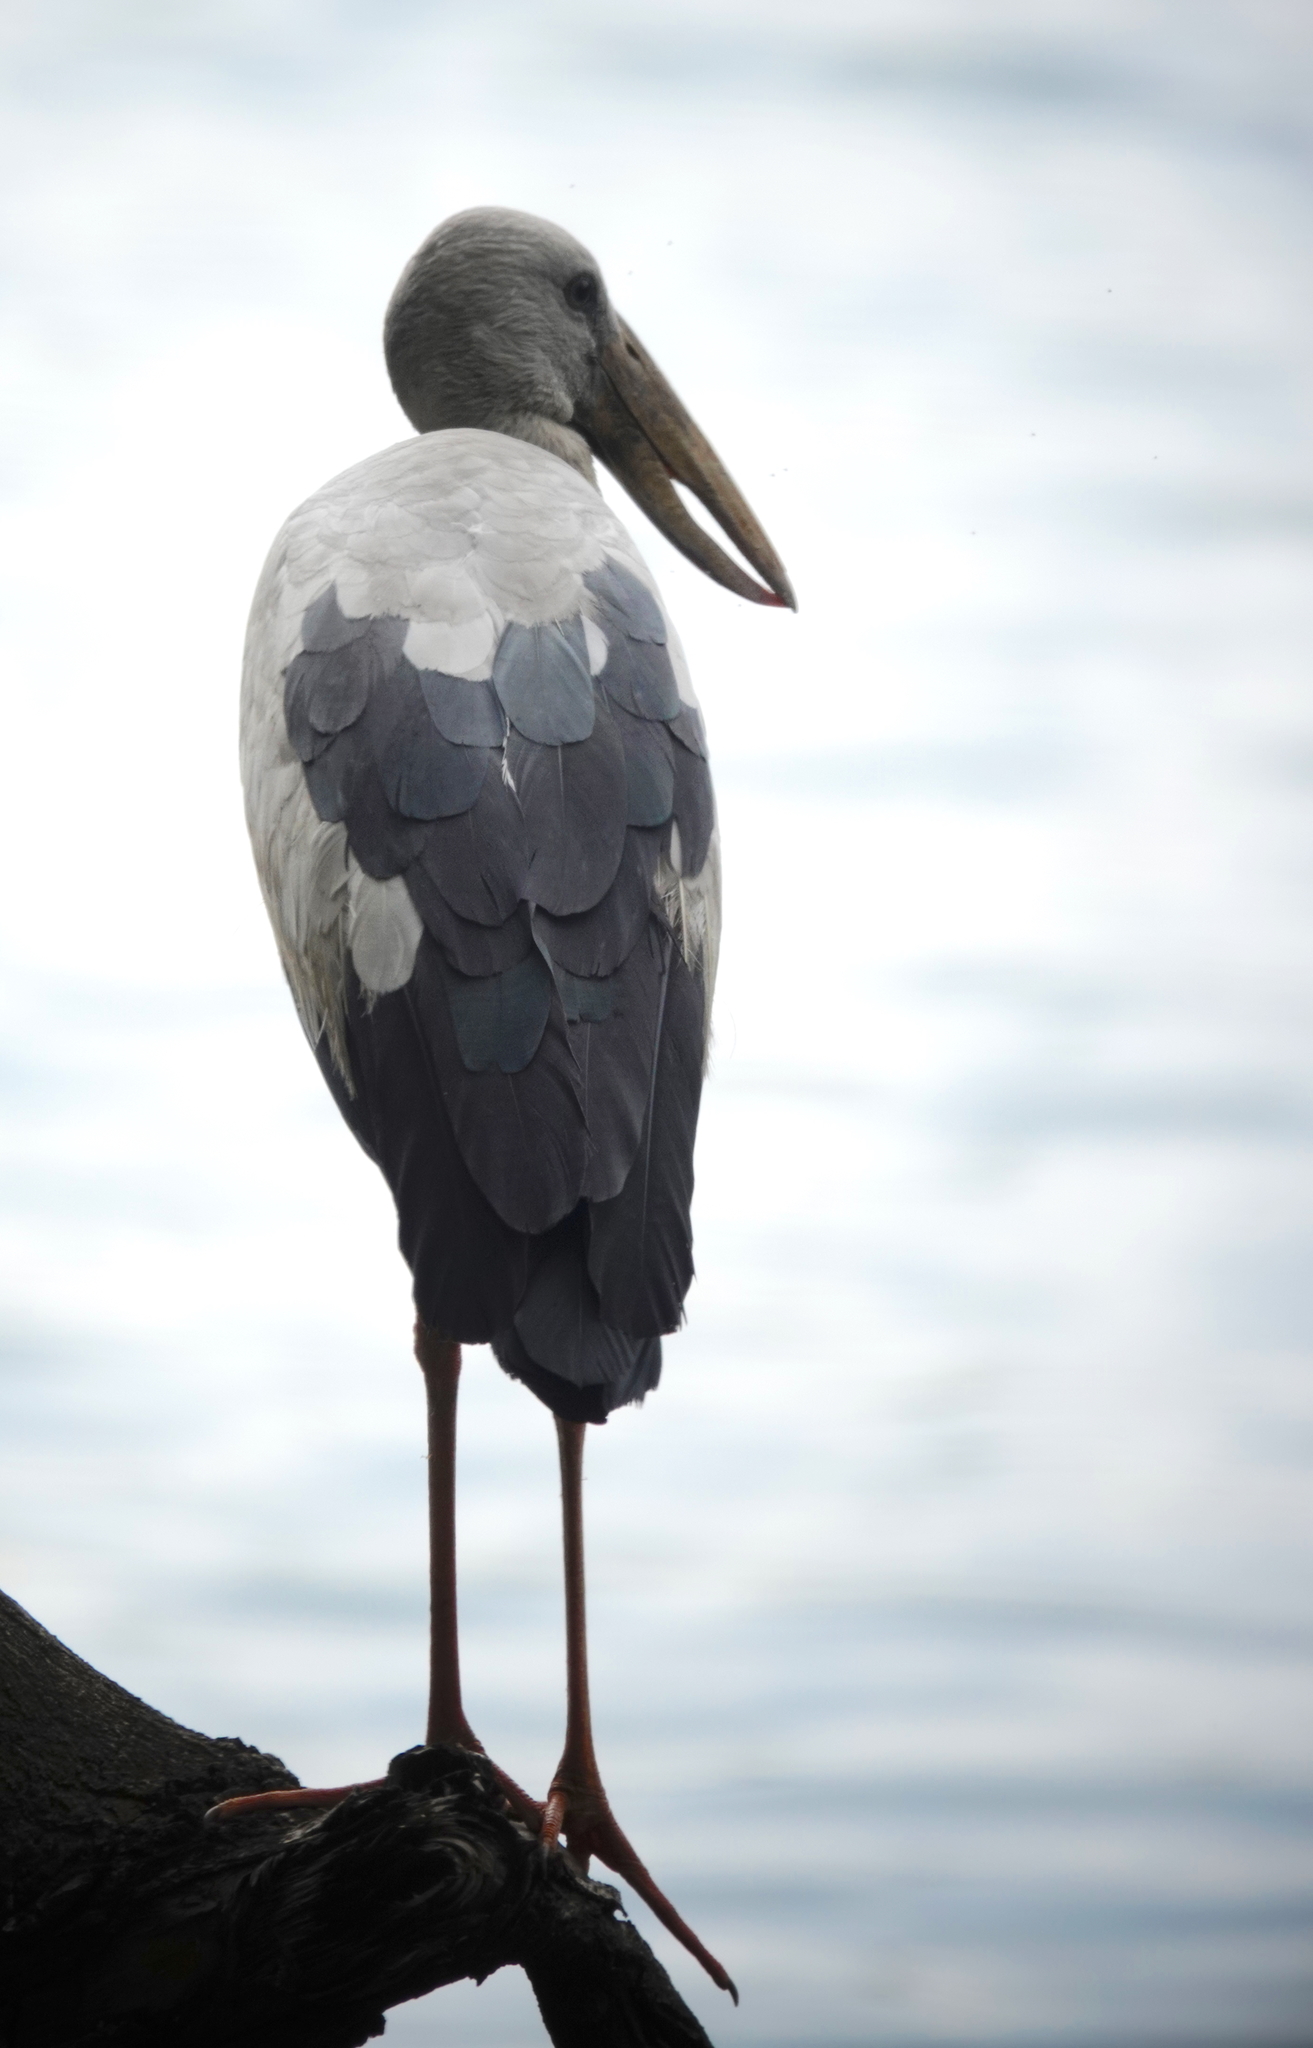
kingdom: Animalia
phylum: Chordata
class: Aves
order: Ciconiiformes
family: Ciconiidae
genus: Anastomus
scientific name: Anastomus oscitans
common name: Asian openbill
